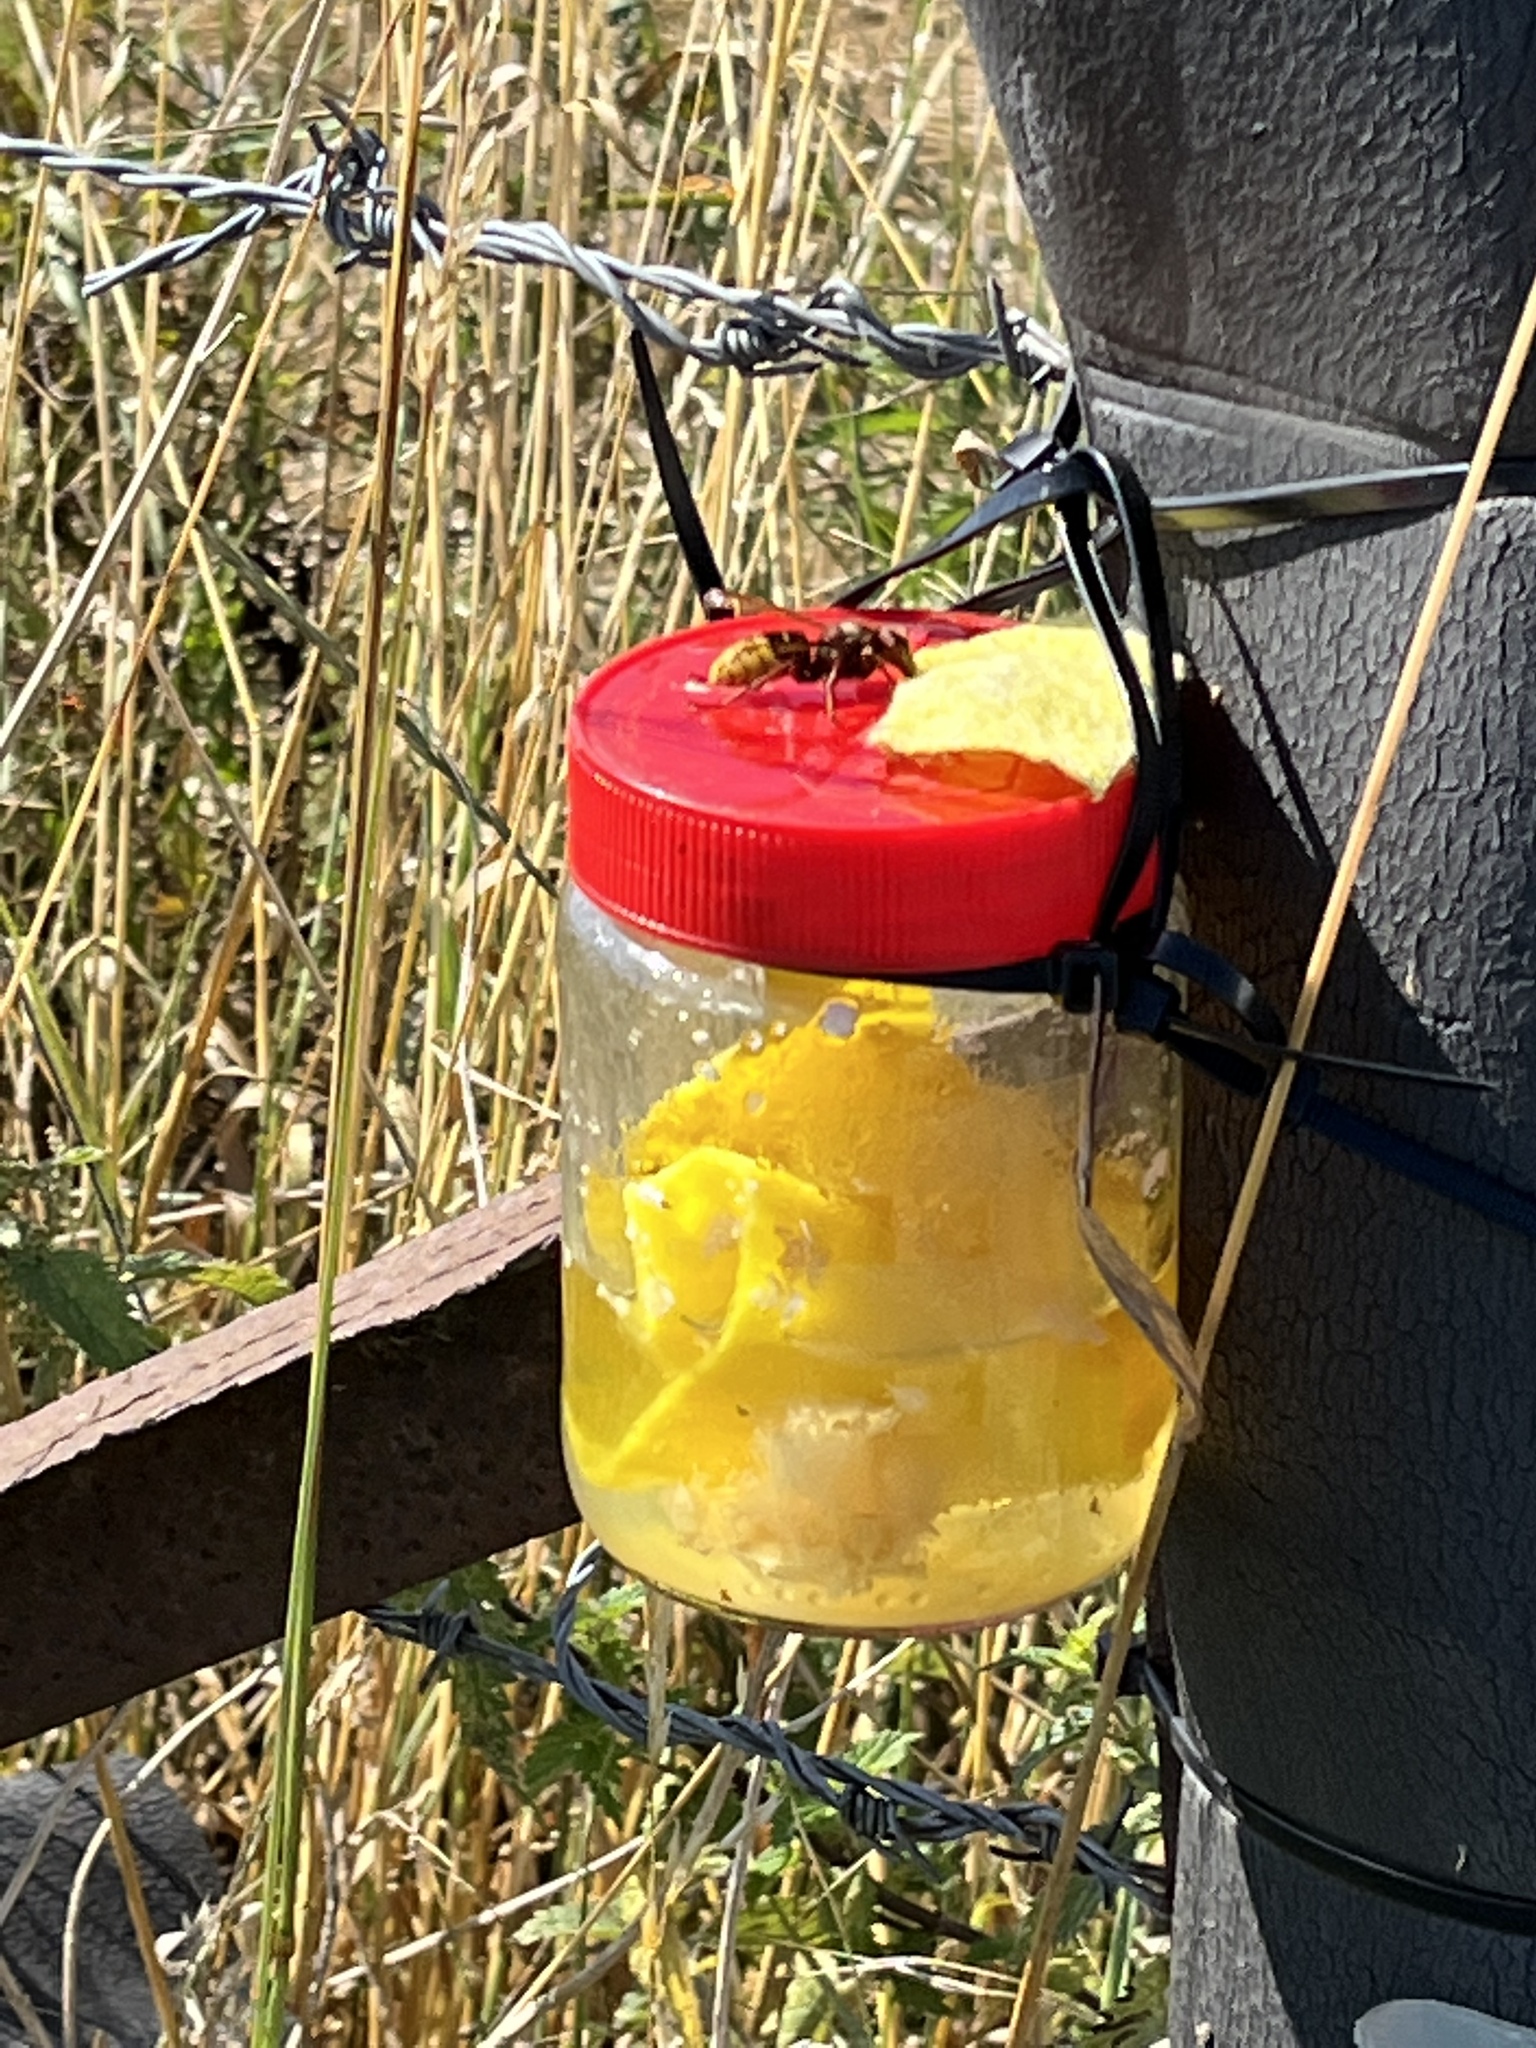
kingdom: Animalia
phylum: Arthropoda
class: Insecta
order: Hymenoptera
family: Vespidae
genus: Vespa
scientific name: Vespa crabro
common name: Hornet
